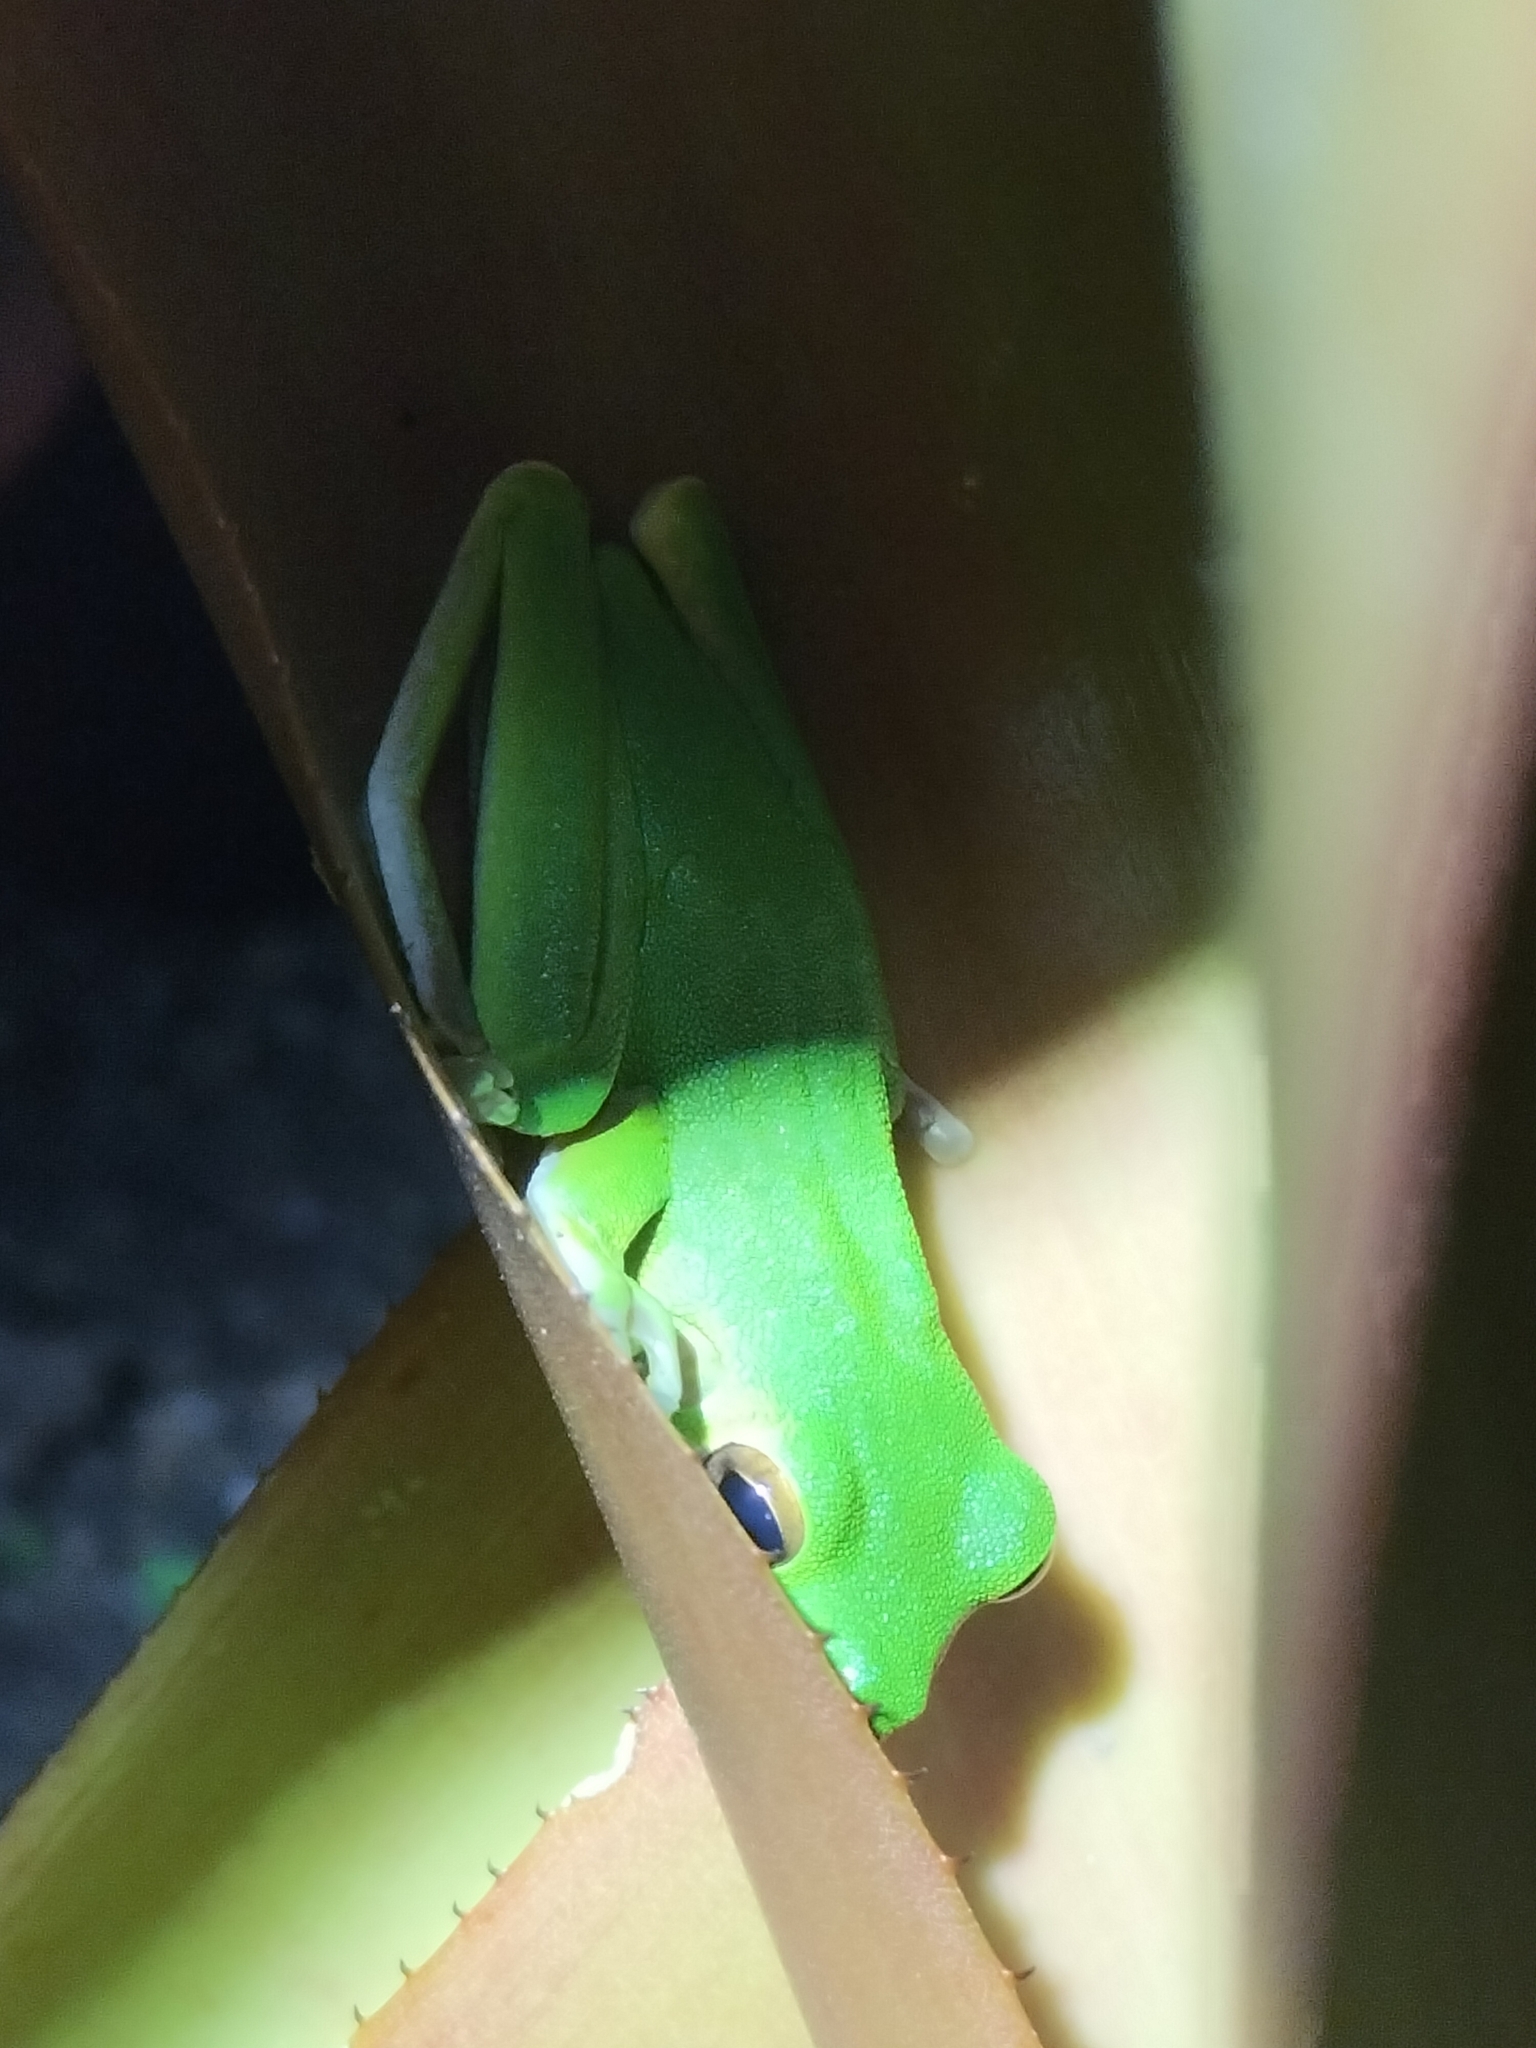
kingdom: Animalia
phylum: Chordata
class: Amphibia
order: Anura
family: Pelodryadidae
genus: Nyctimystes
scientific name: Nyctimystes infrafrenatus
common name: Australian giant treefrog
